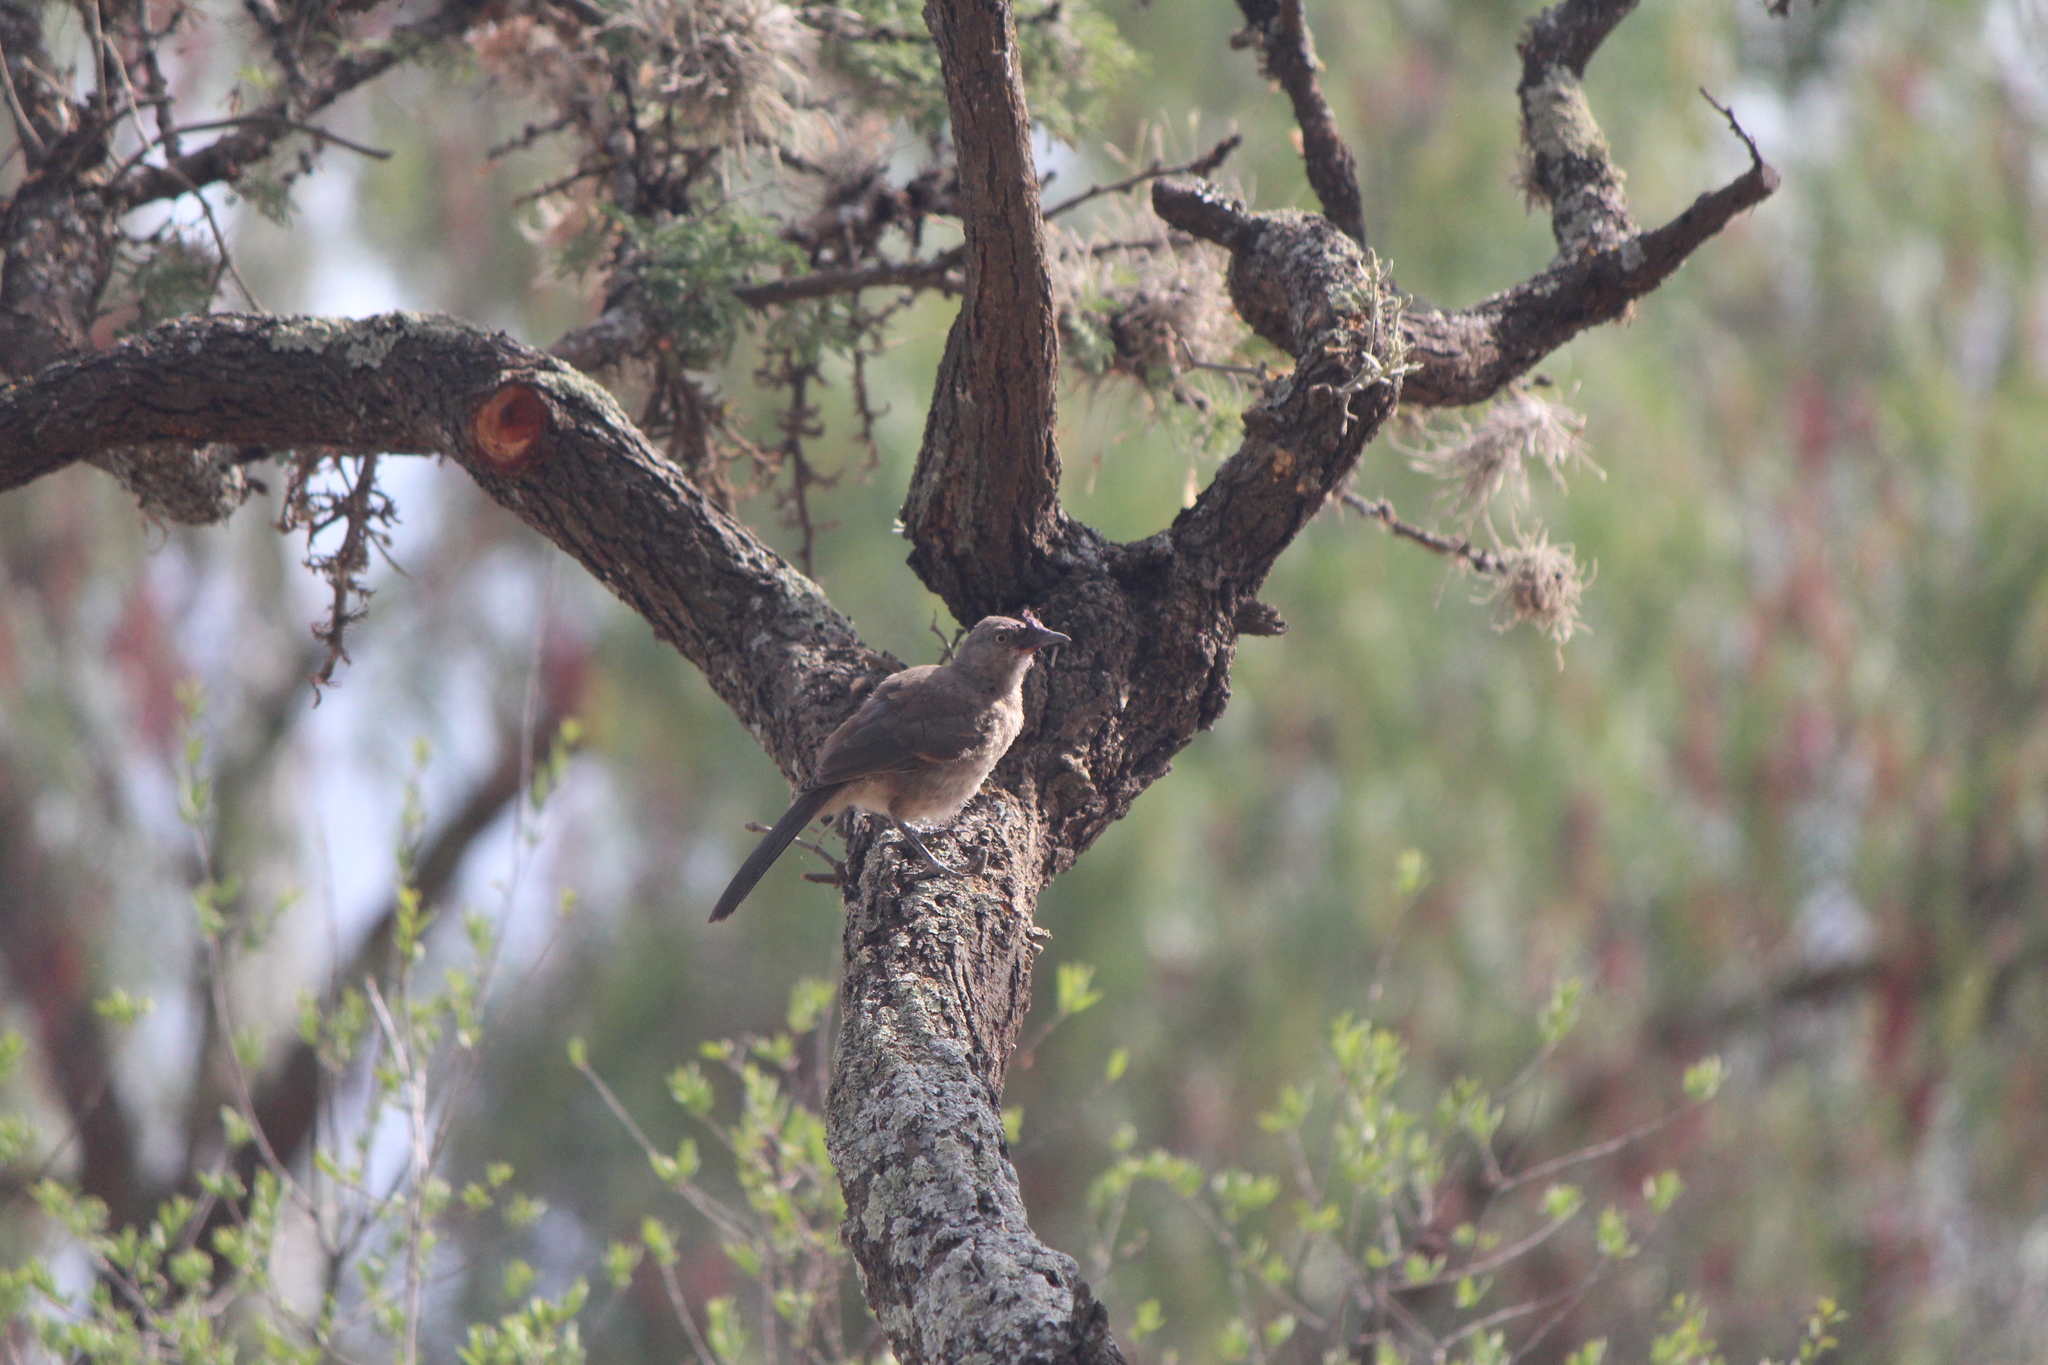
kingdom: Animalia
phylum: Chordata
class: Aves
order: Passeriformes
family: Mimidae
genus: Toxostoma
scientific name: Toxostoma curvirostre
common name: Curve-billed thrasher
